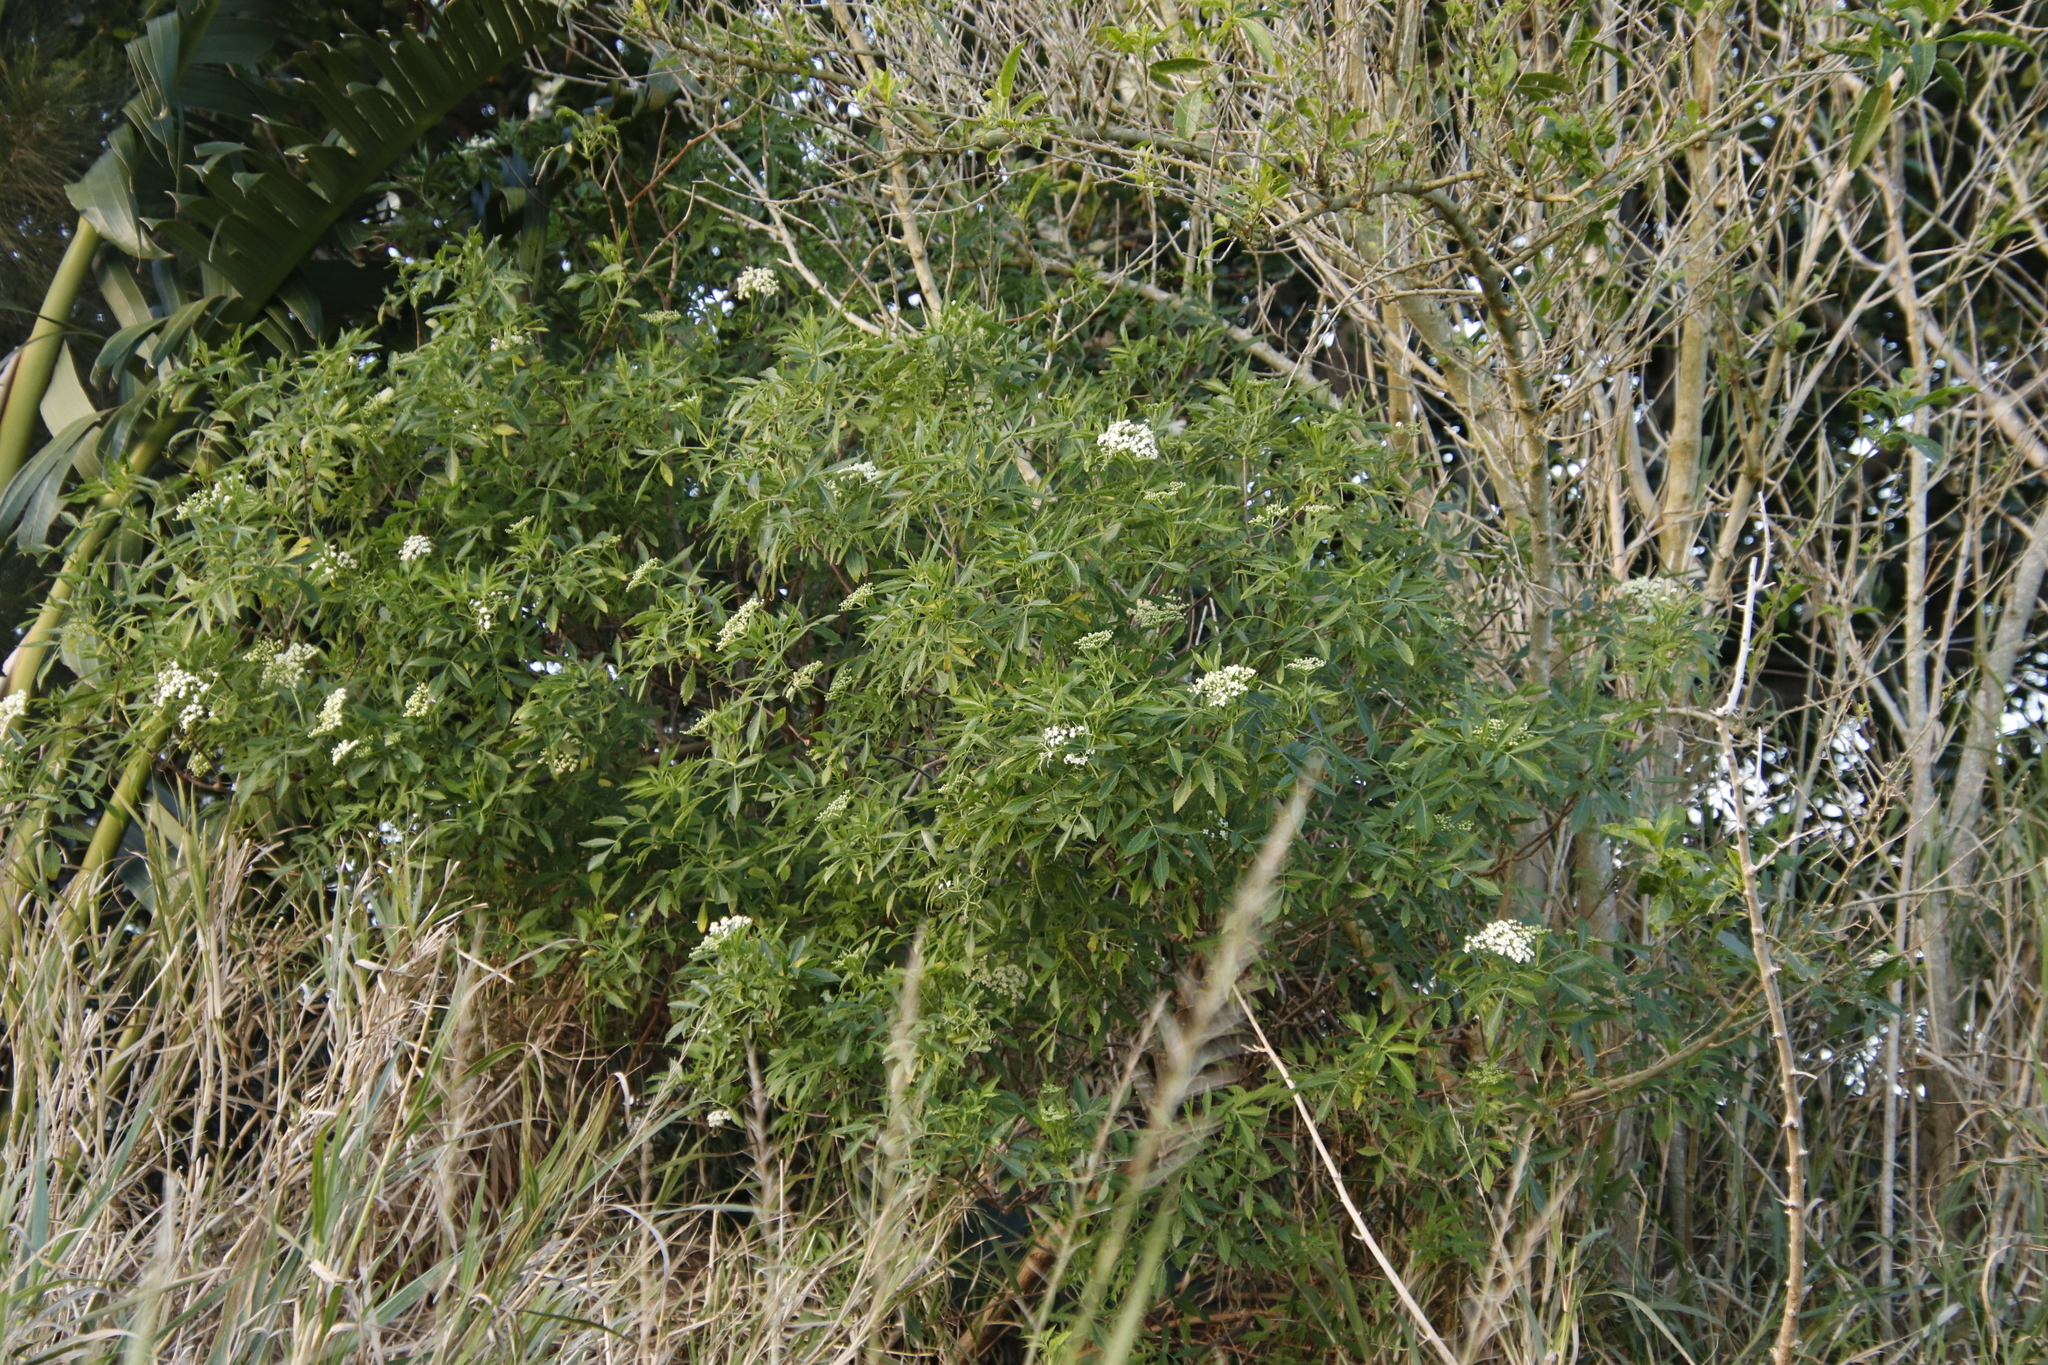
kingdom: Plantae
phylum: Tracheophyta
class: Magnoliopsida
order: Dipsacales
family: Viburnaceae
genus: Sambucus
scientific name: Sambucus nigra
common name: Elder
